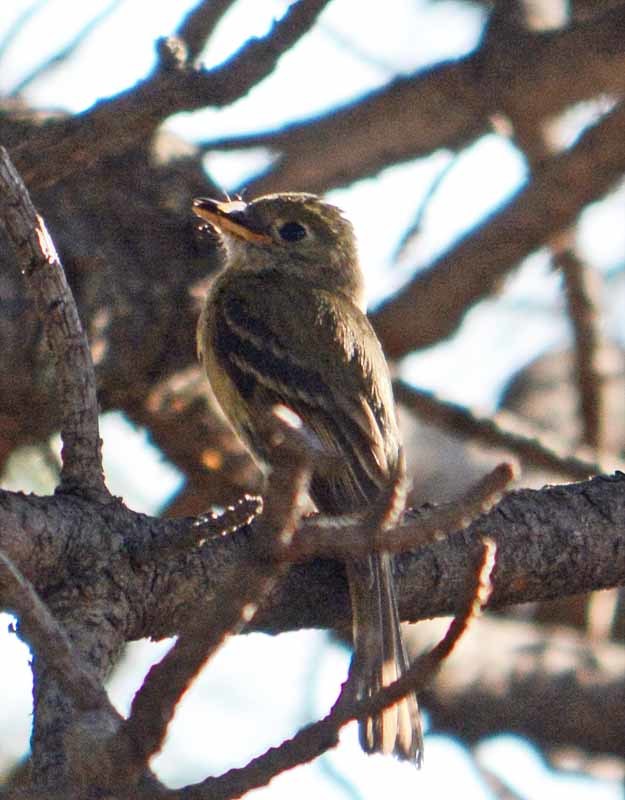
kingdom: Animalia
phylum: Chordata
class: Aves
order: Passeriformes
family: Tyrannidae
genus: Empidonax
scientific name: Empidonax difficilis
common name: Pacific-slope flycatcher
